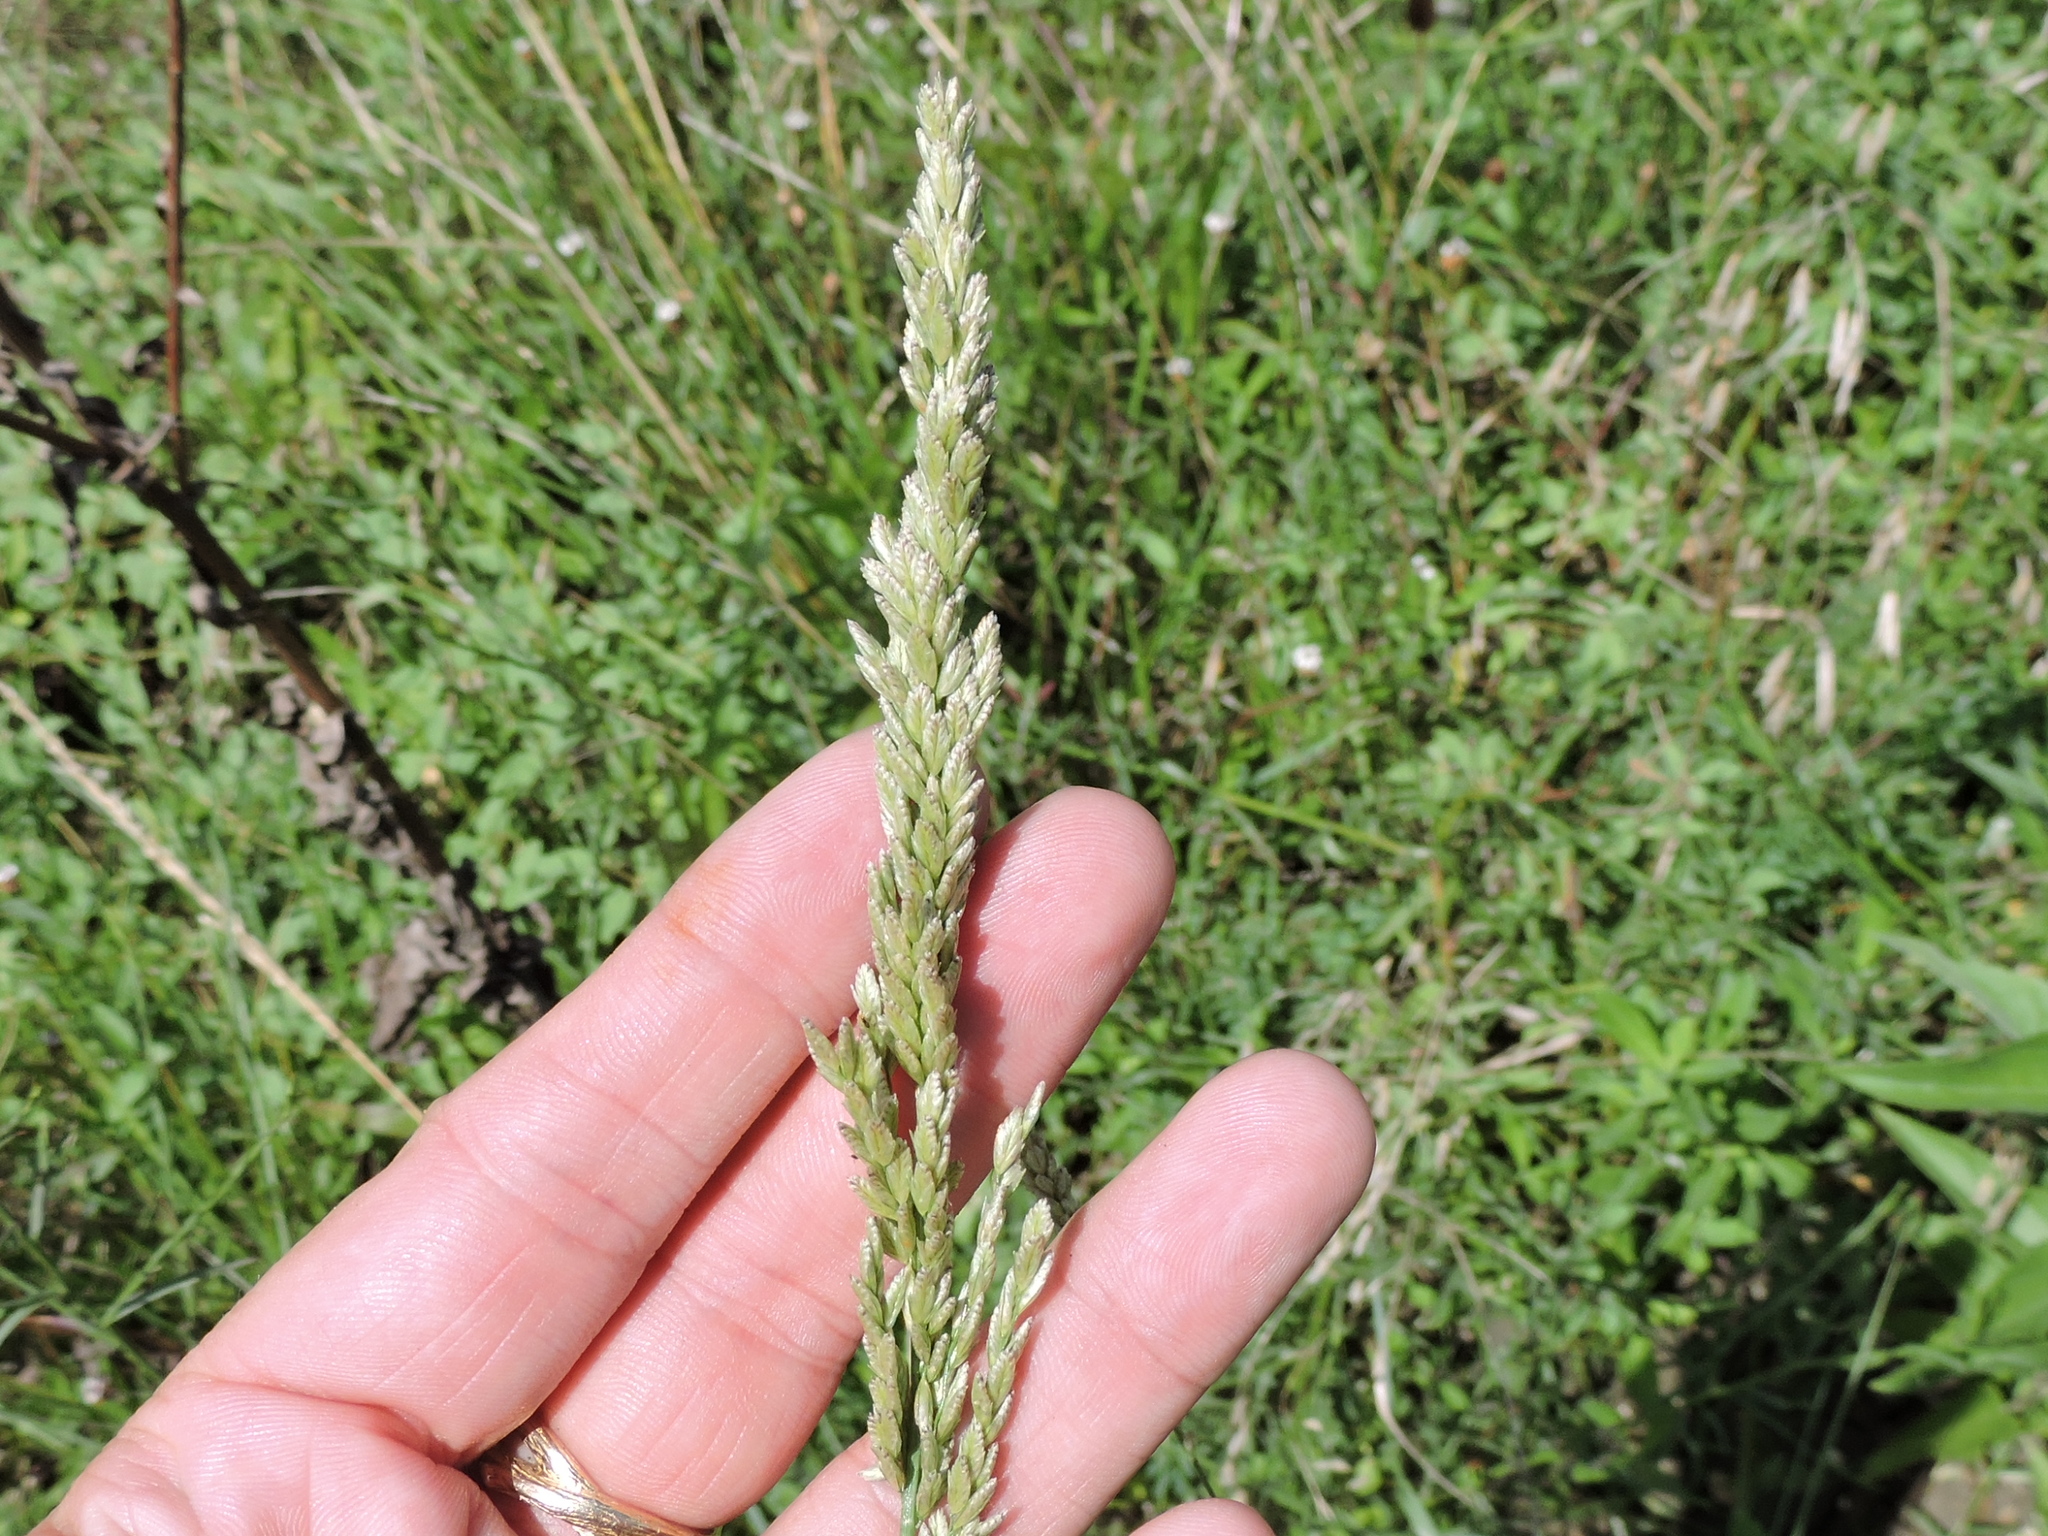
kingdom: Plantae
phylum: Tracheophyta
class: Liliopsida
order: Poales
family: Poaceae
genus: Tridens
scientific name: Tridens albescens
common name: White tridens
